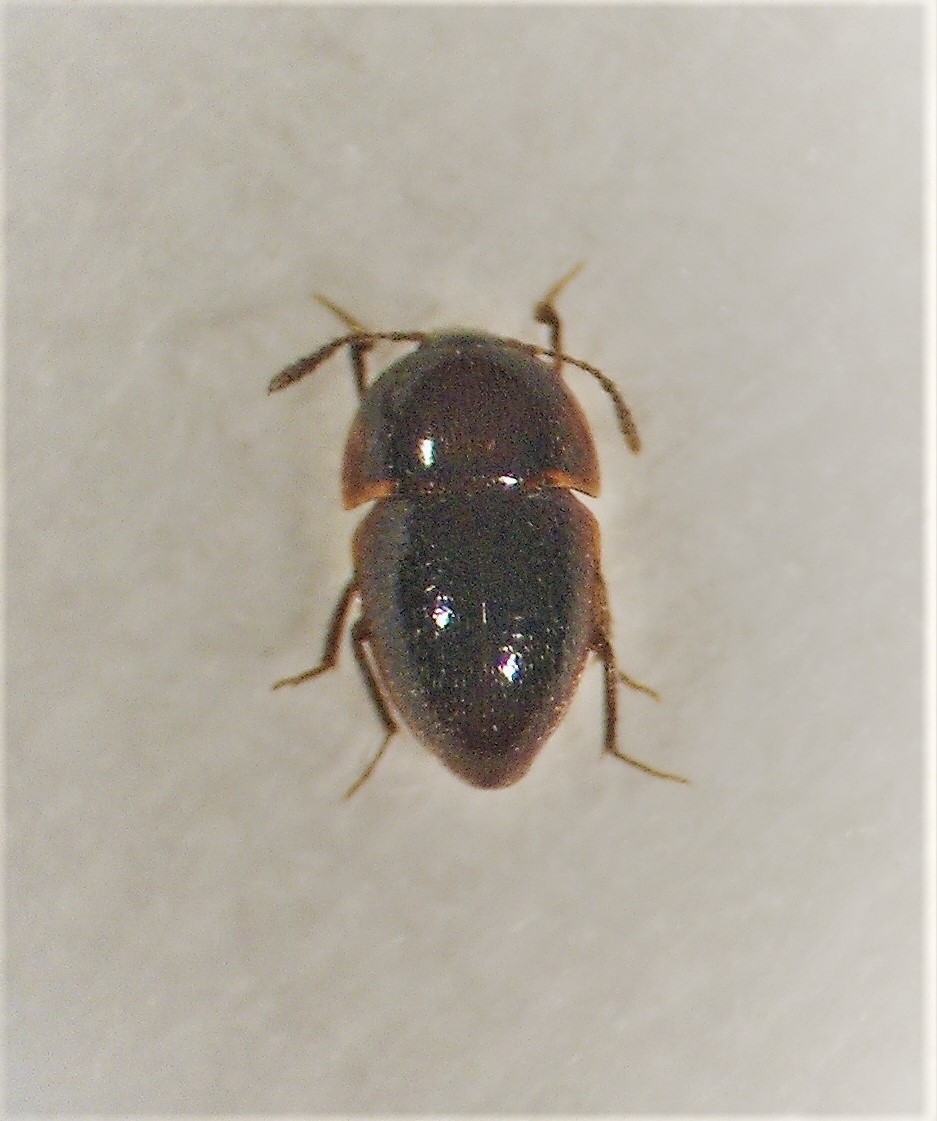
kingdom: Animalia
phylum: Arthropoda
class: Insecta
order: Coleoptera
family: Leiodidae
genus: Chelagyrtodes
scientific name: Chelagyrtodes crowsoni
